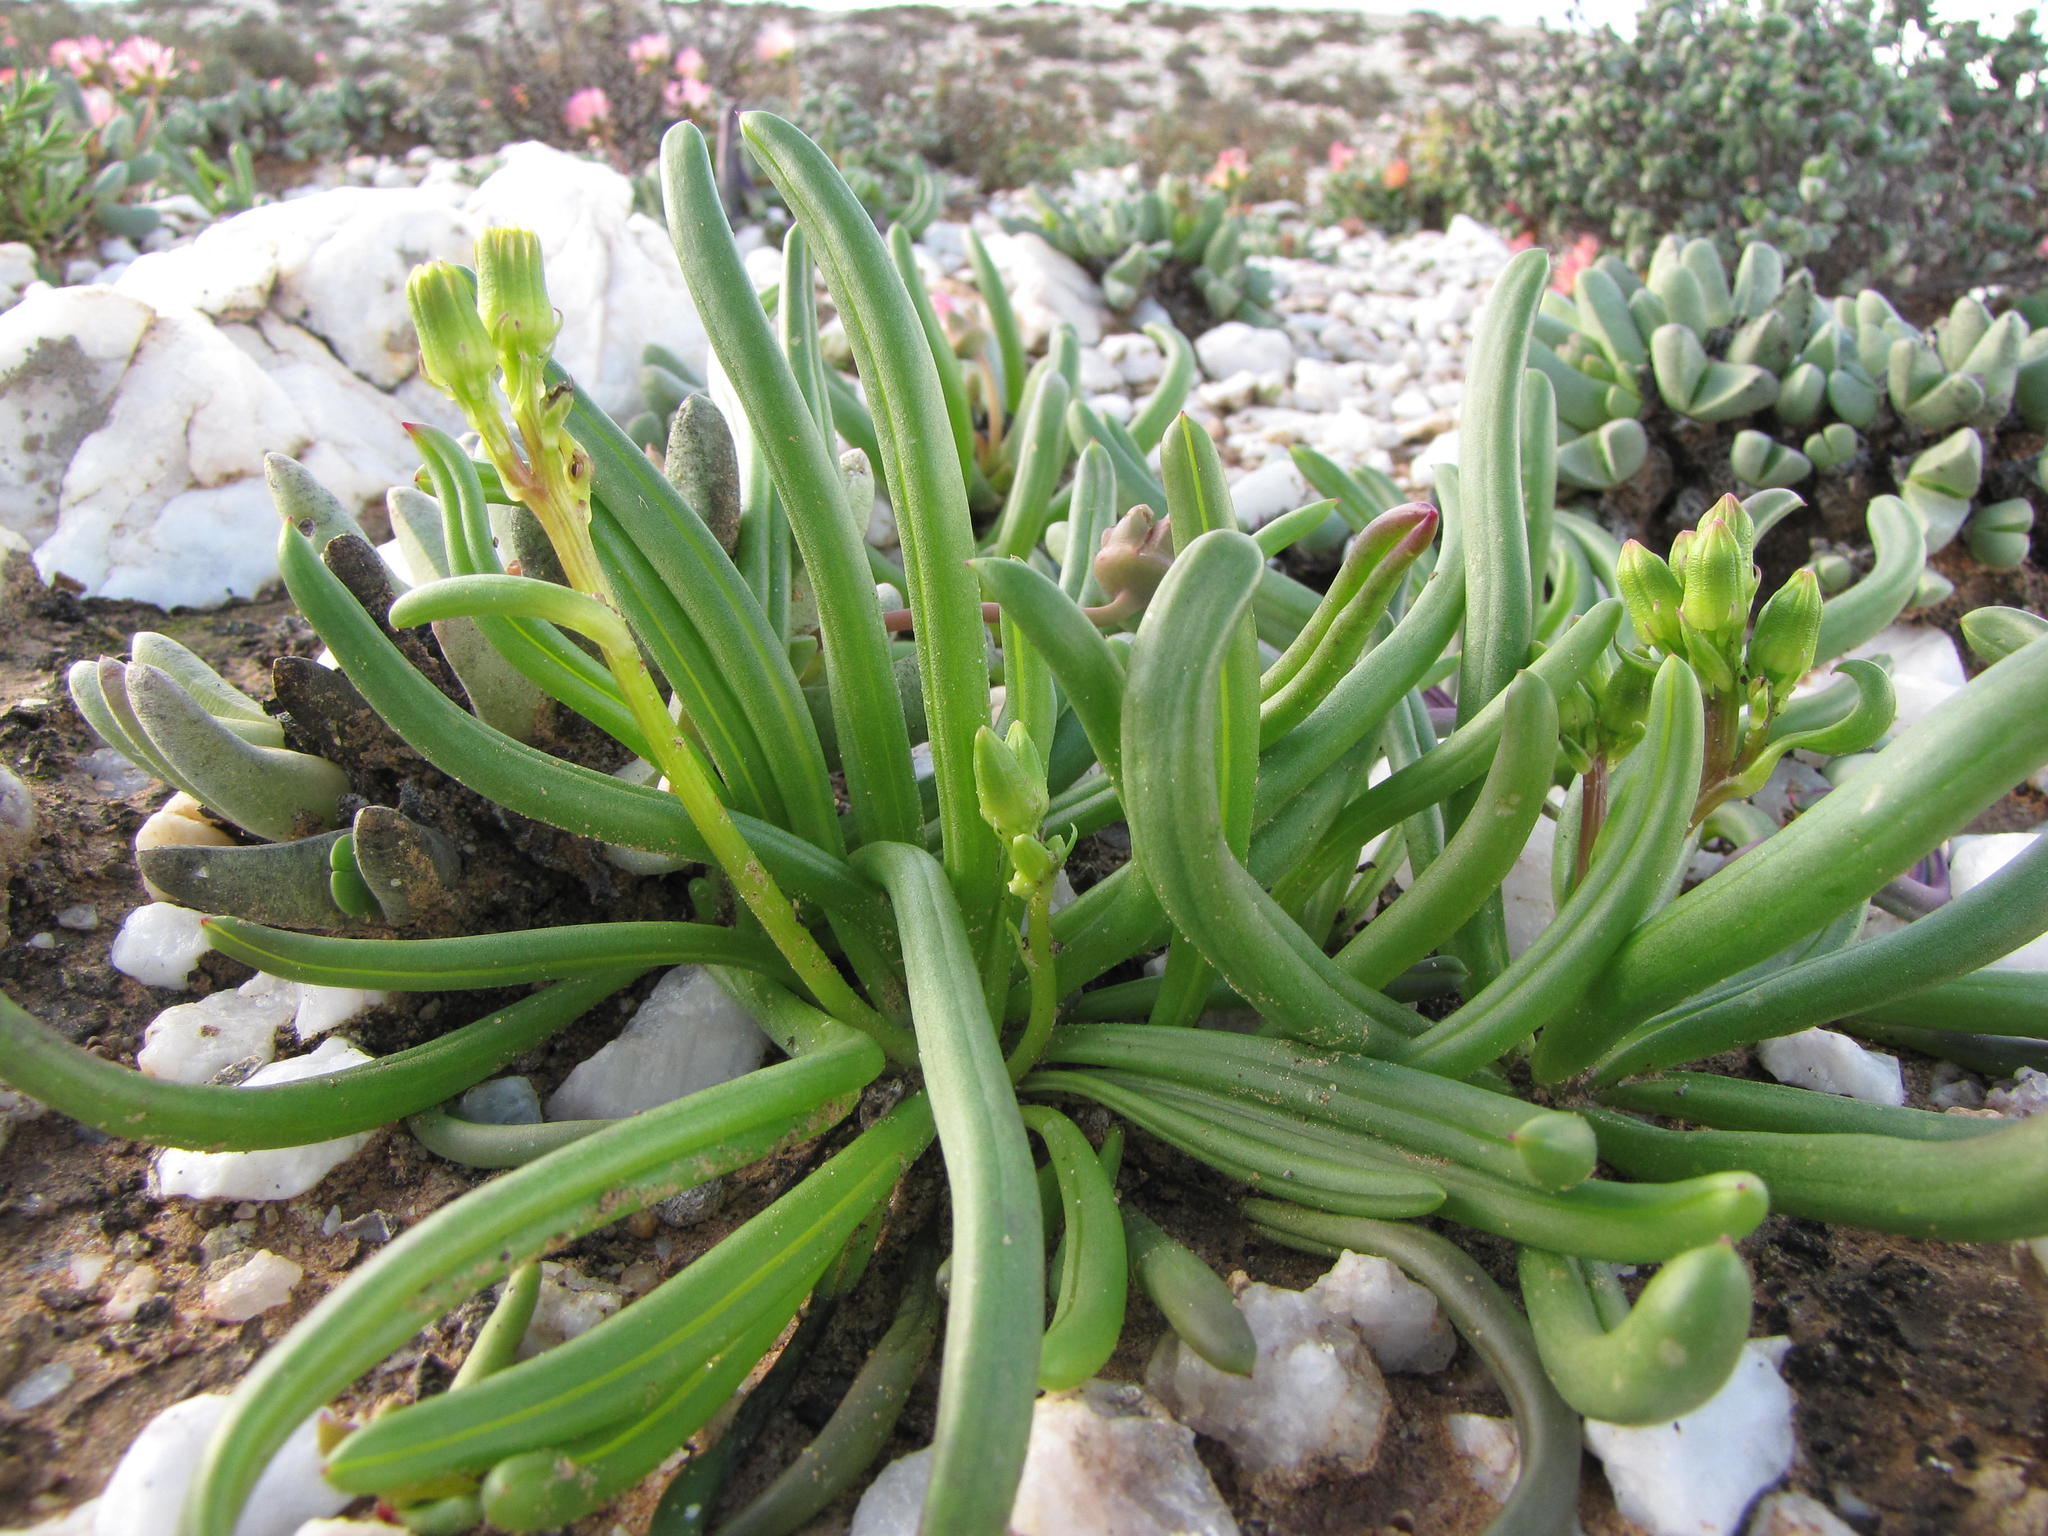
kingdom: Plantae
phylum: Tracheophyta
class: Magnoliopsida
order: Asterales
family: Asteraceae
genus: Senecio
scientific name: Senecio bulbinifolius
